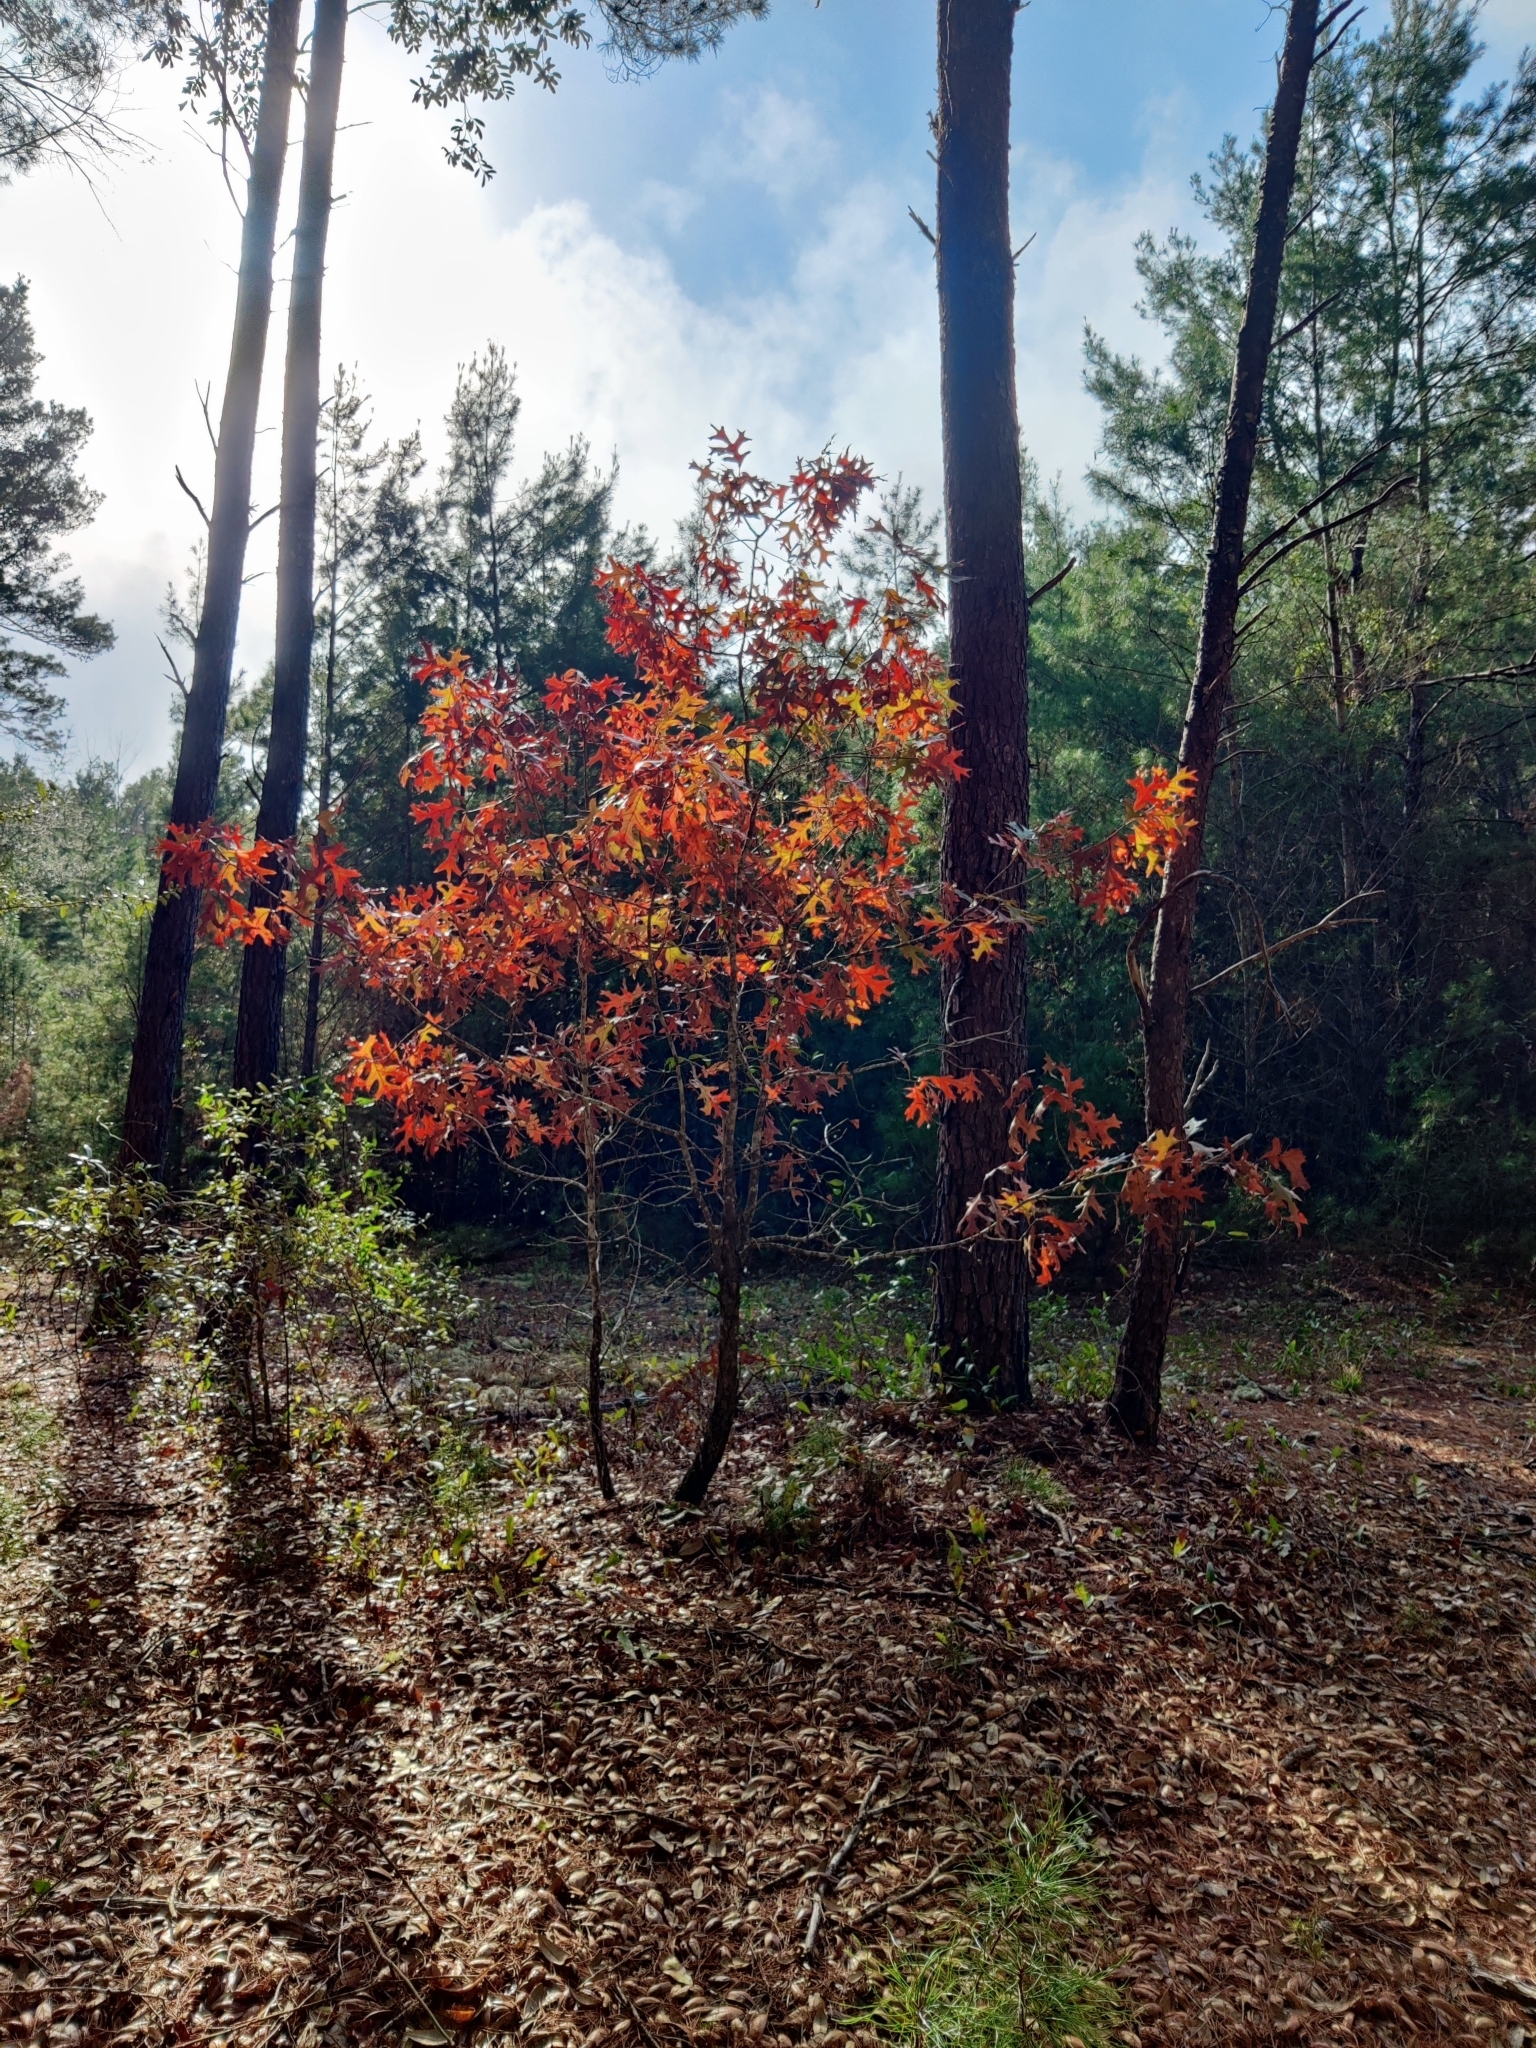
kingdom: Plantae
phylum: Tracheophyta
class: Magnoliopsida
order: Fagales
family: Fagaceae
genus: Quercus
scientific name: Quercus laevis
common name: Turkey oak
